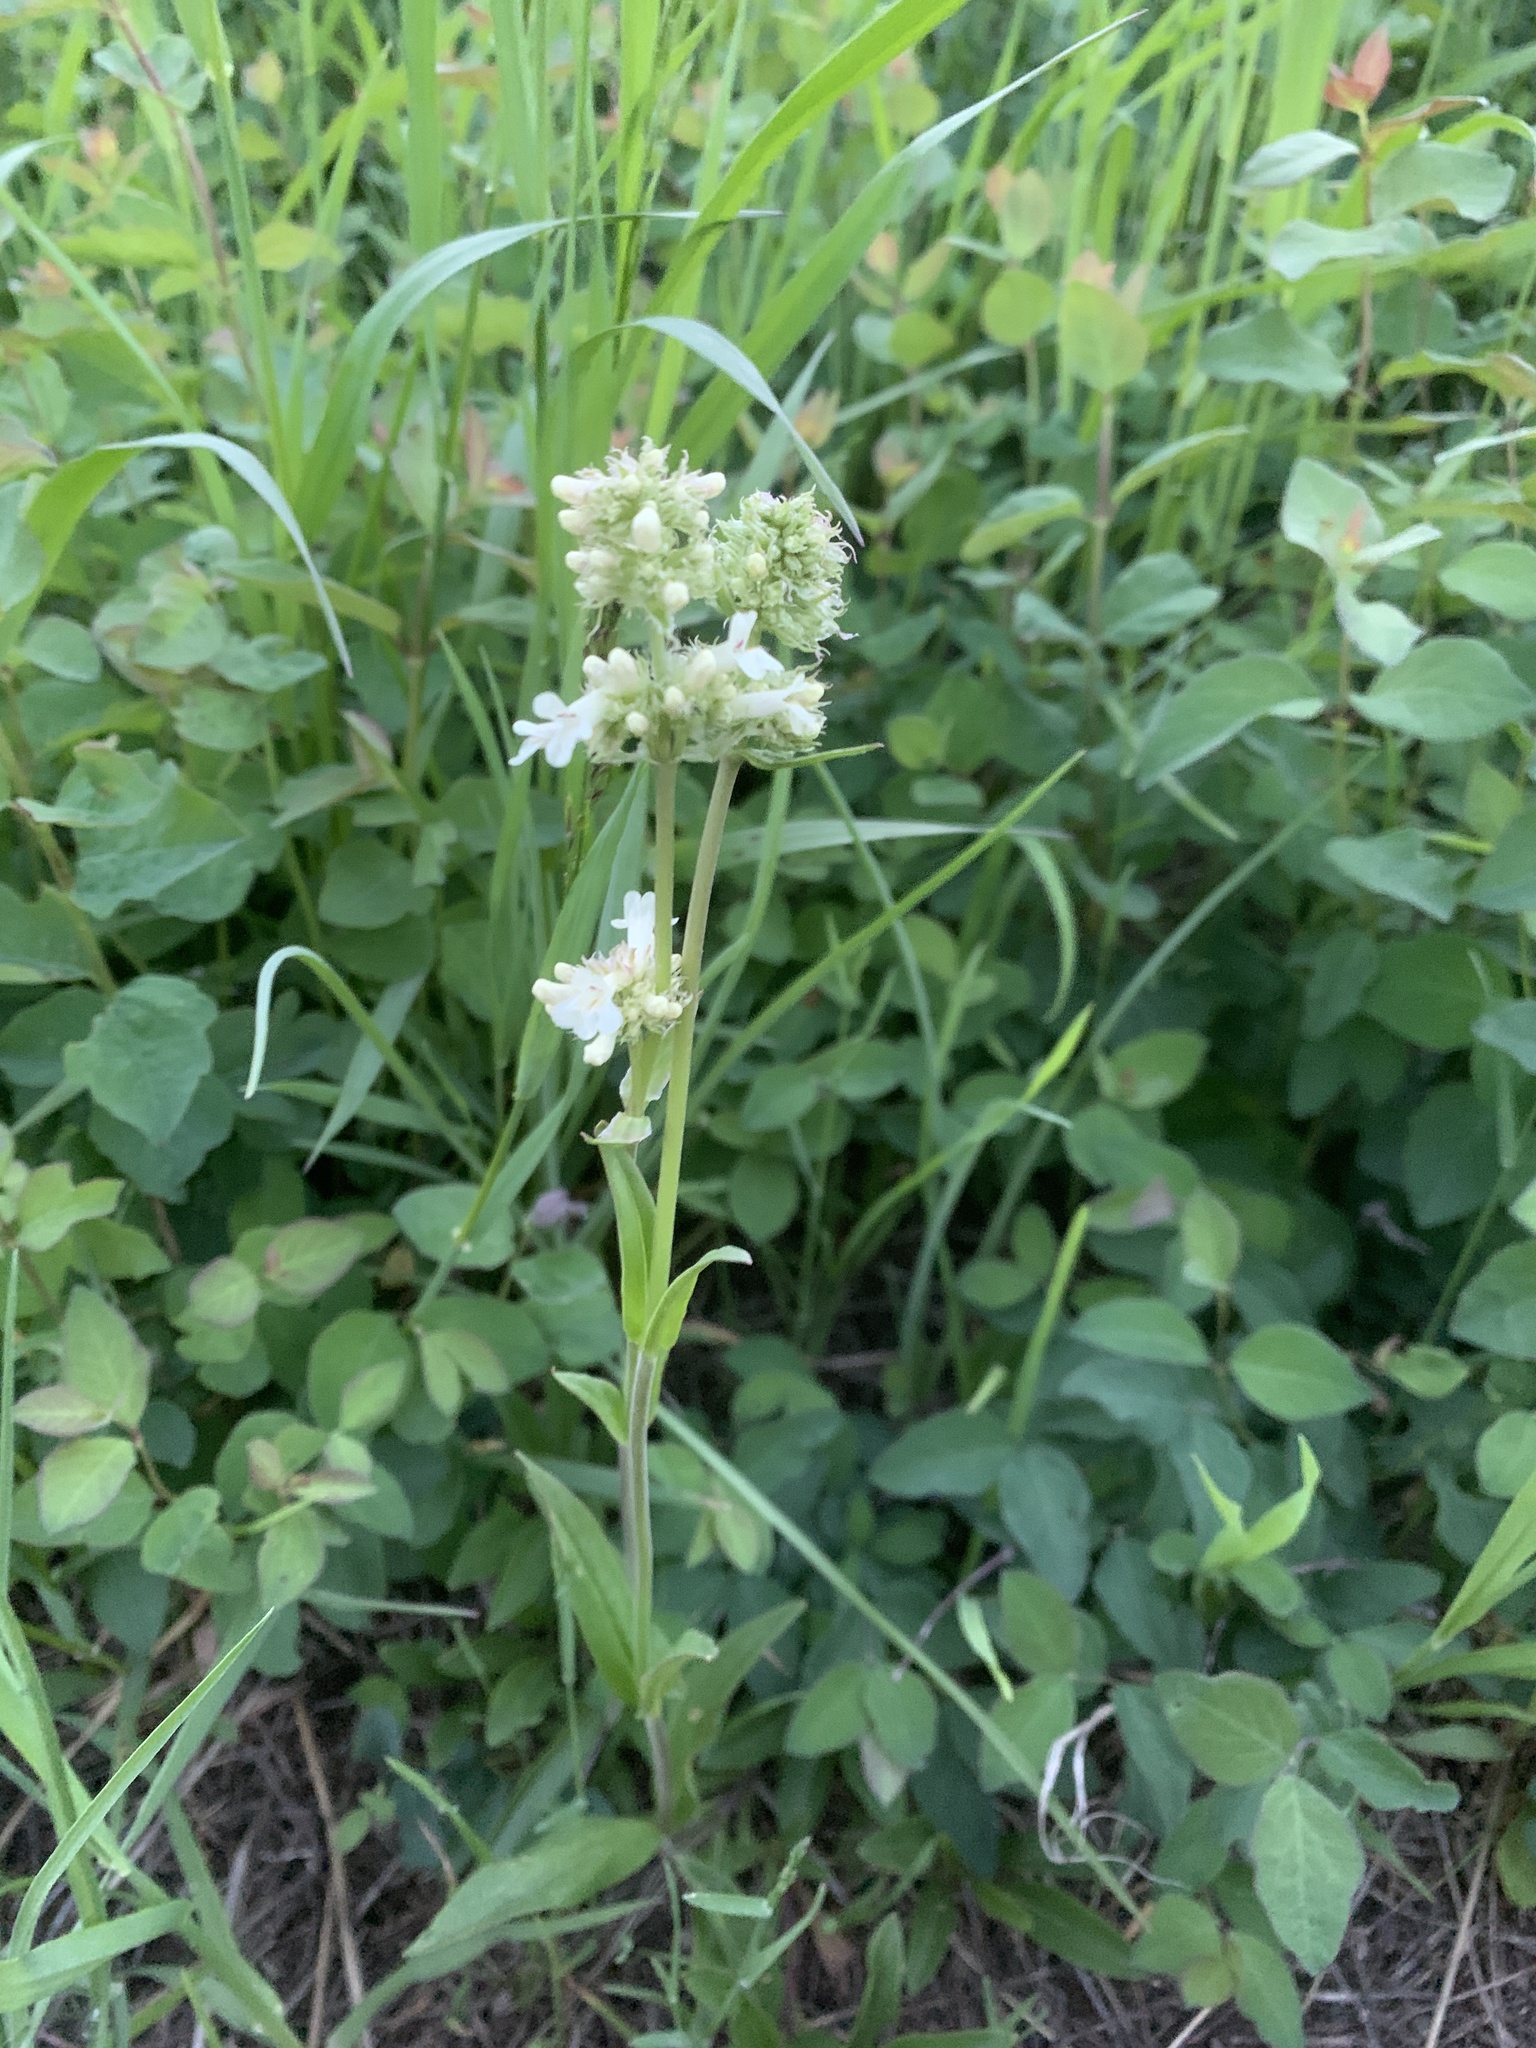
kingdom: Plantae
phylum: Tracheophyta
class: Magnoliopsida
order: Lamiales
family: Plantaginaceae
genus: Penstemon
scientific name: Penstemon confertus
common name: Lesser yellow beardtongue
